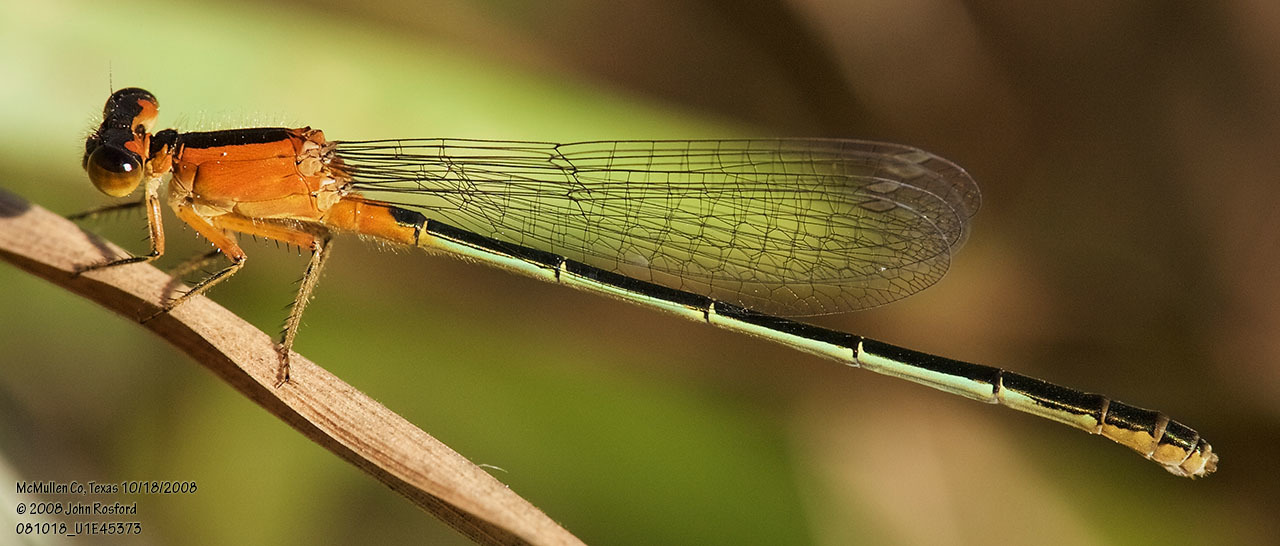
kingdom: Animalia
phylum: Arthropoda
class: Insecta
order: Odonata
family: Coenagrionidae
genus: Ischnura
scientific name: Ischnura ramburii
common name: Rambur's forktail
